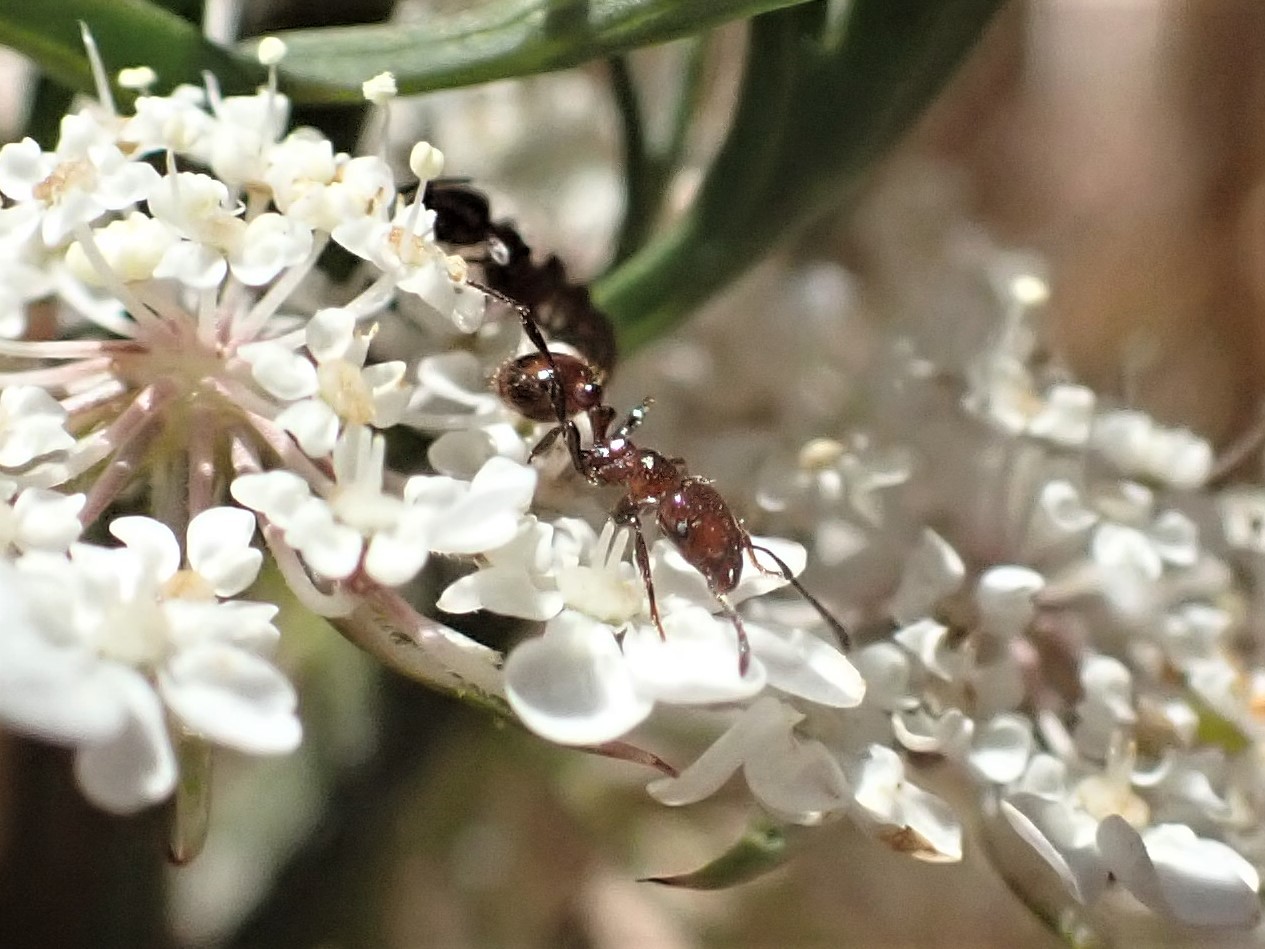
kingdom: Animalia
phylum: Arthropoda
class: Insecta
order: Hymenoptera
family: Formicidae
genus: Monomorium
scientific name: Monomorium antarcticum
